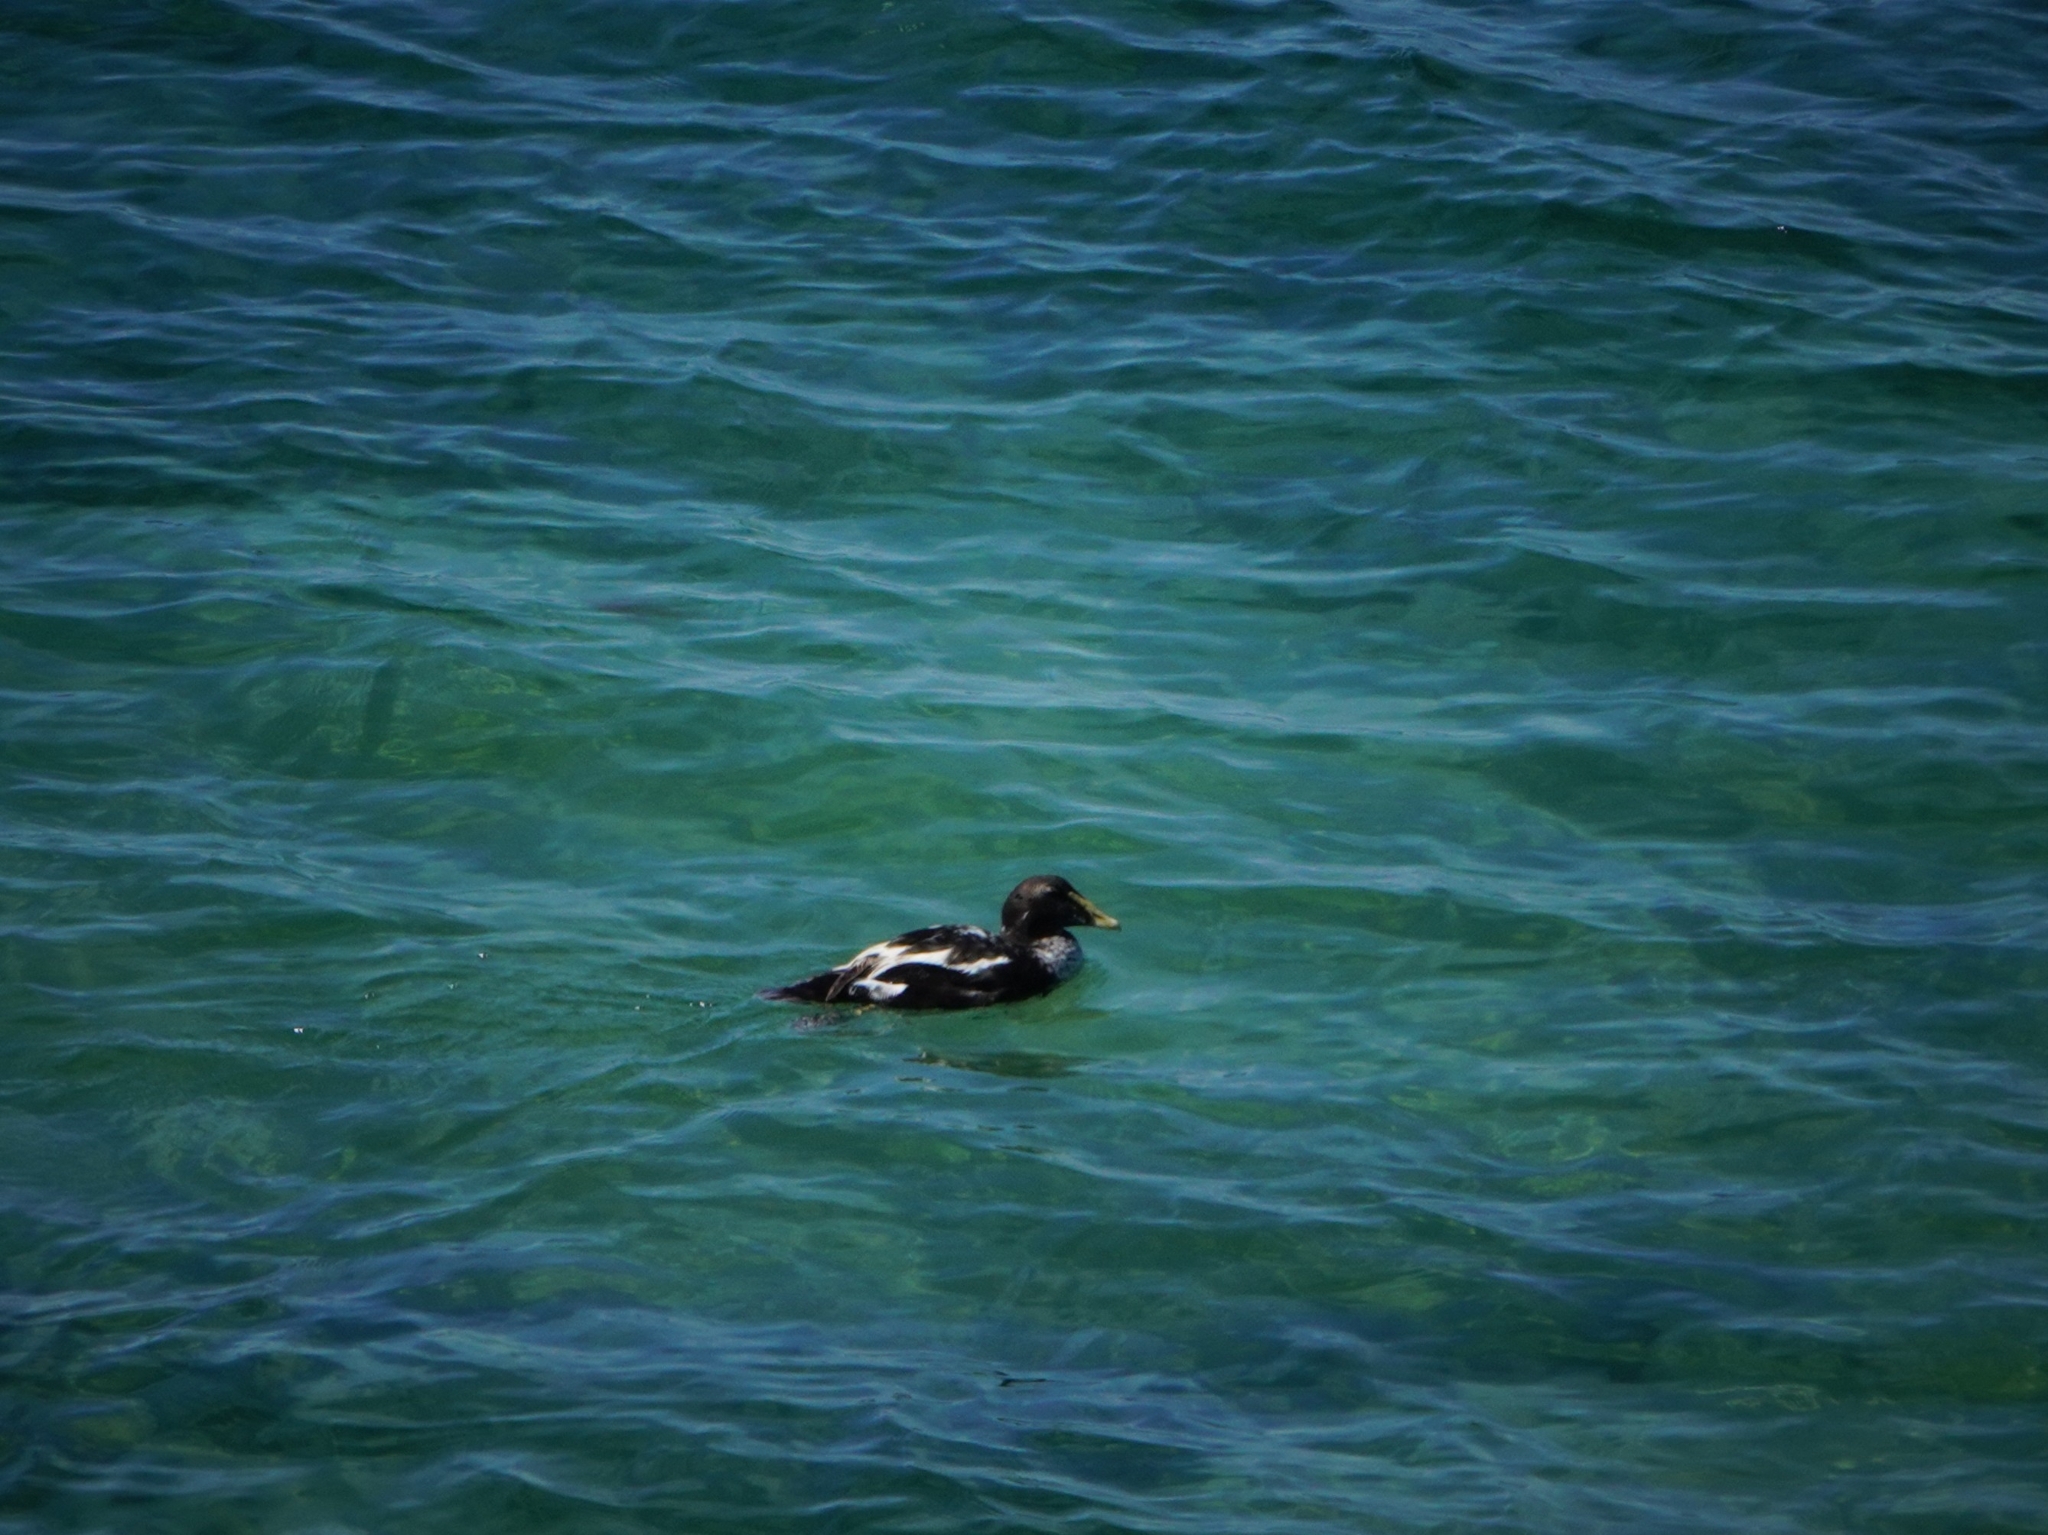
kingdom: Animalia
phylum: Chordata
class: Aves
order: Anseriformes
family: Anatidae
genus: Somateria
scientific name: Somateria mollissima
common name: Common eider
